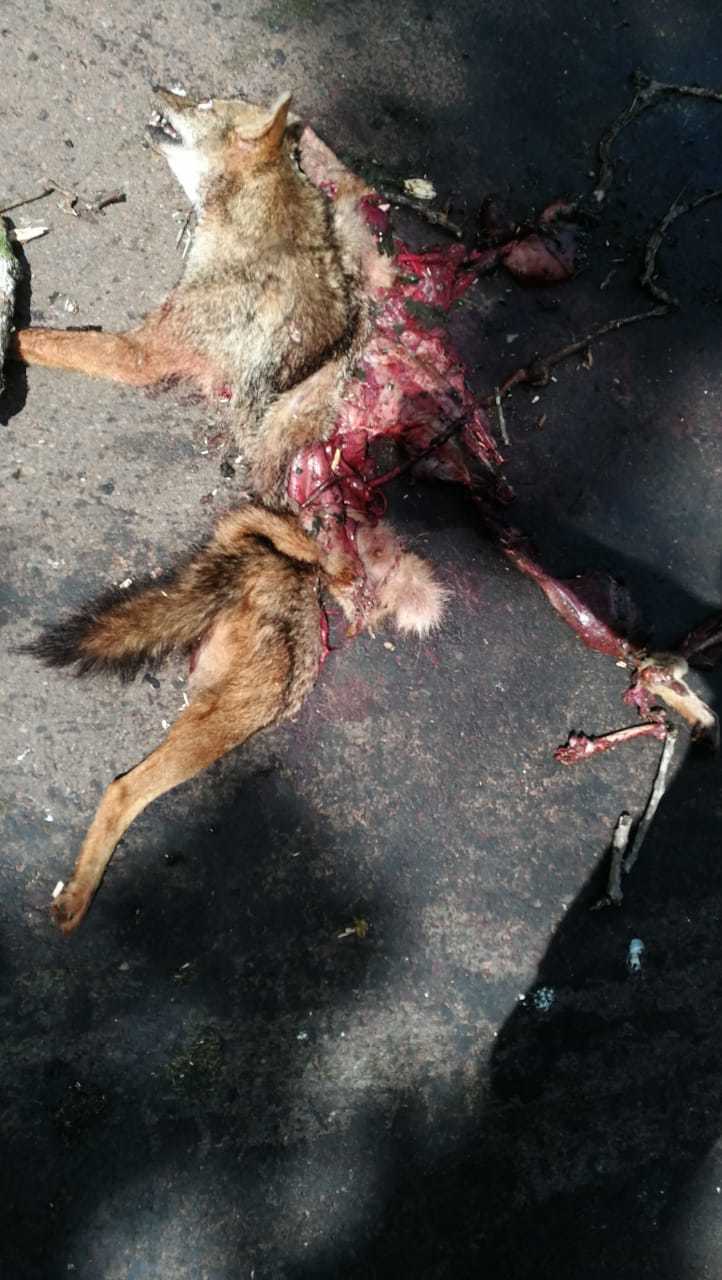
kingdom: Animalia
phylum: Chordata
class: Mammalia
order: Carnivora
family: Canidae
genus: Canis
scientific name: Canis aureus
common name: Golden jackal
